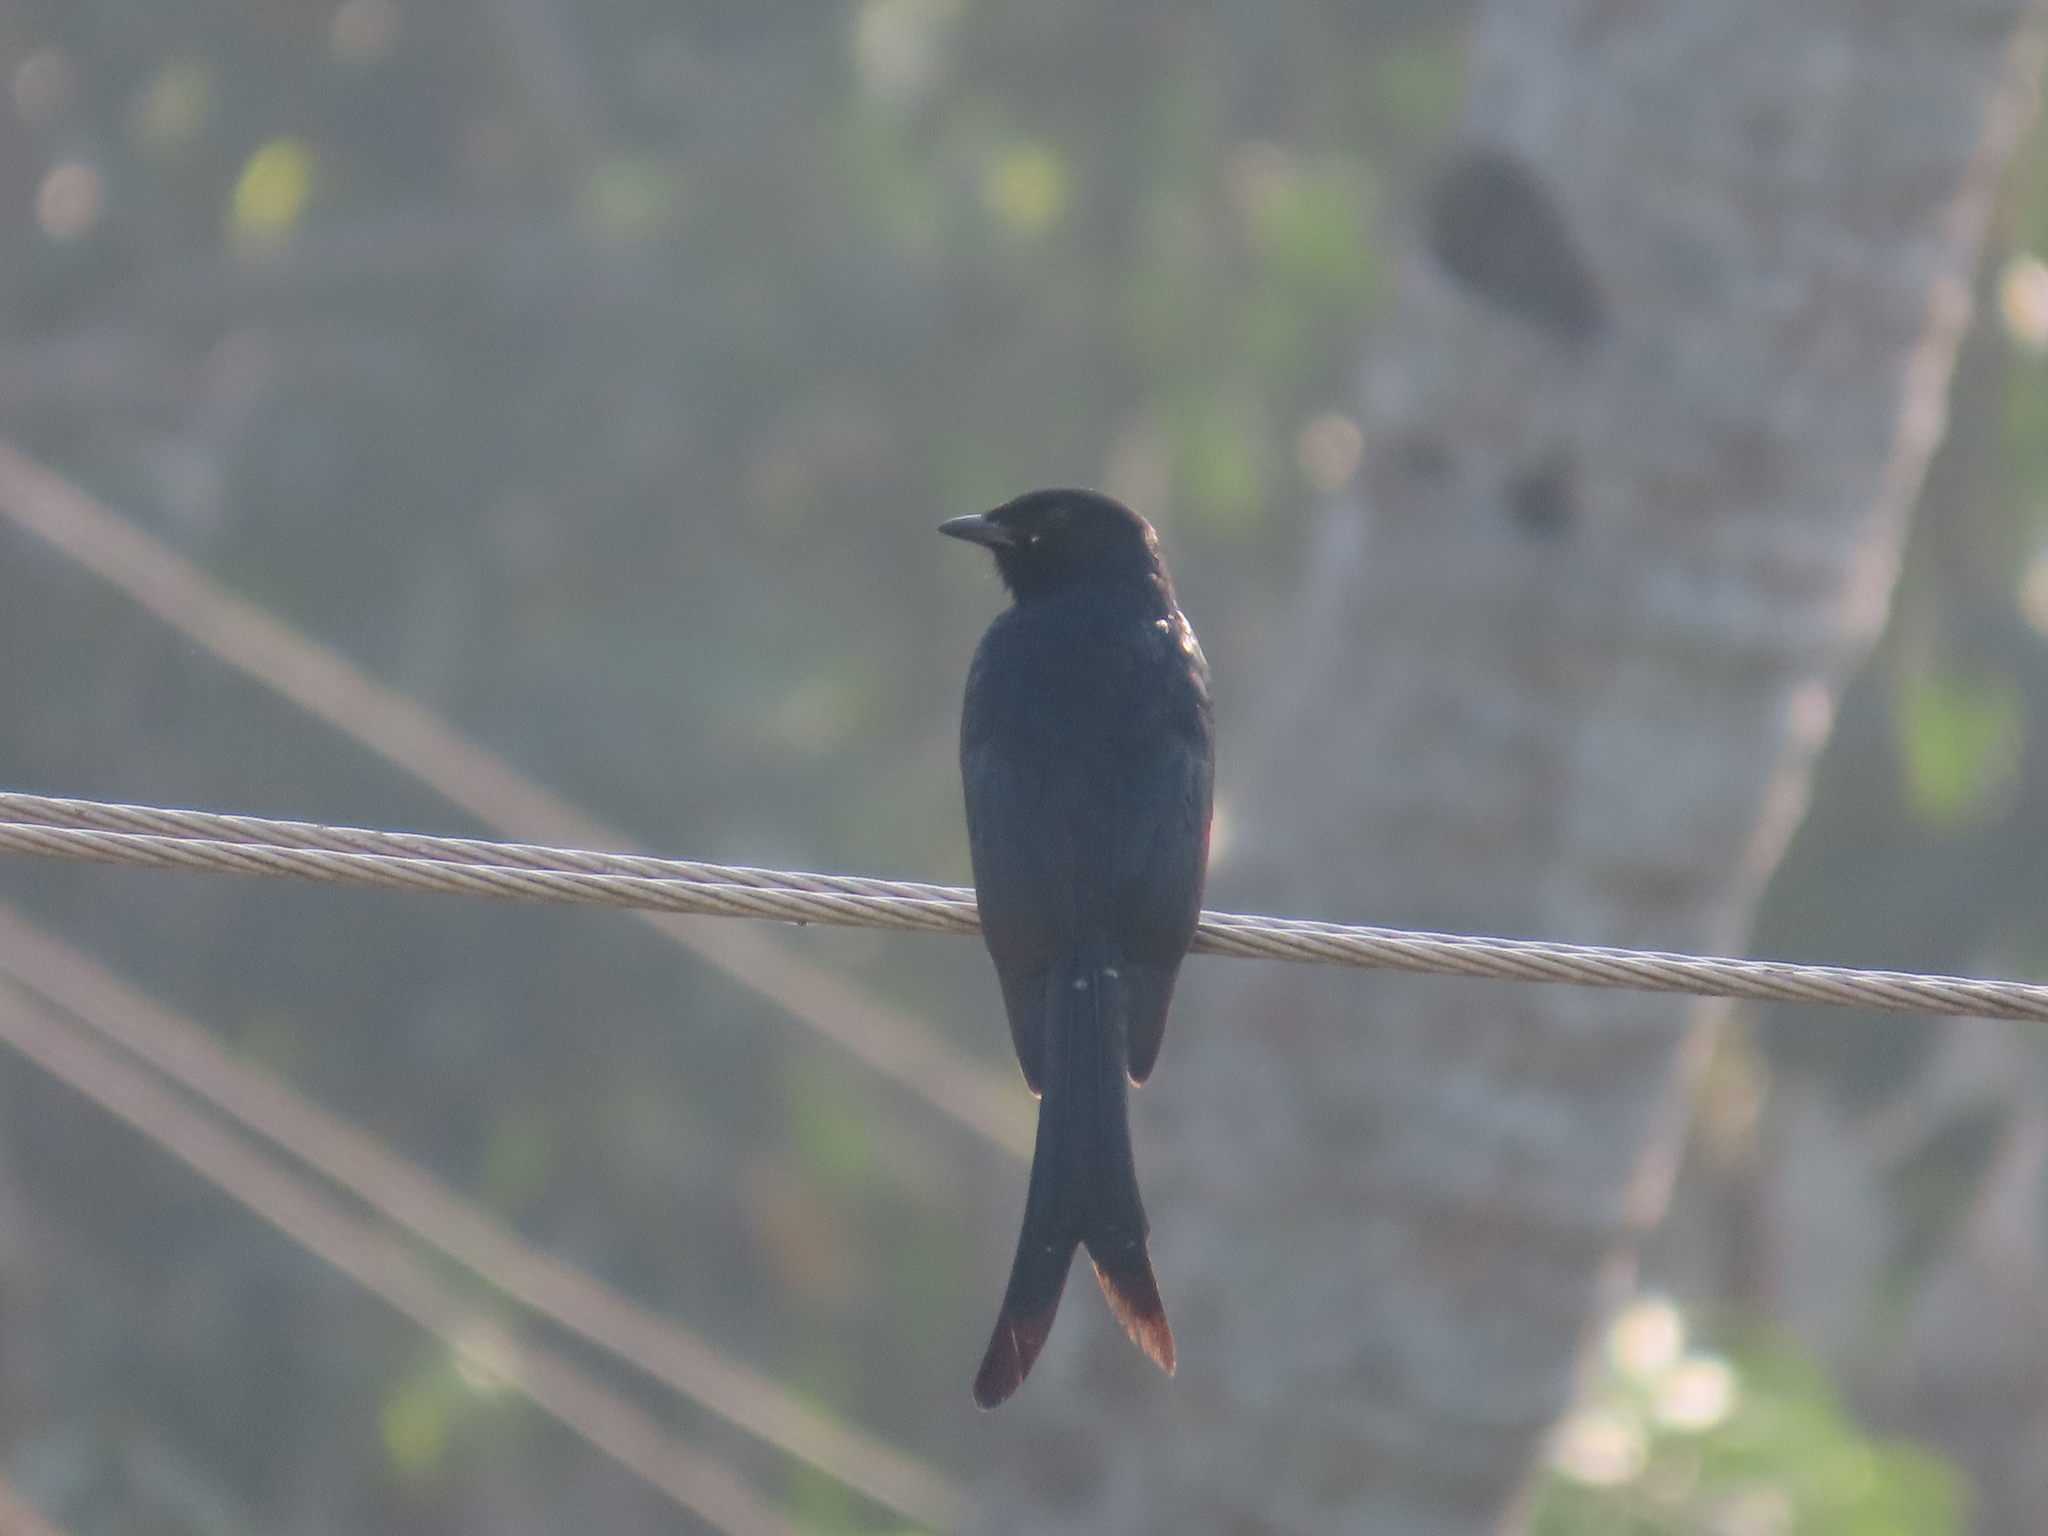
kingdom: Animalia
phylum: Chordata
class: Aves
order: Passeriformes
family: Dicruridae
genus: Dicrurus
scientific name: Dicrurus macrocercus
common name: Black drongo
